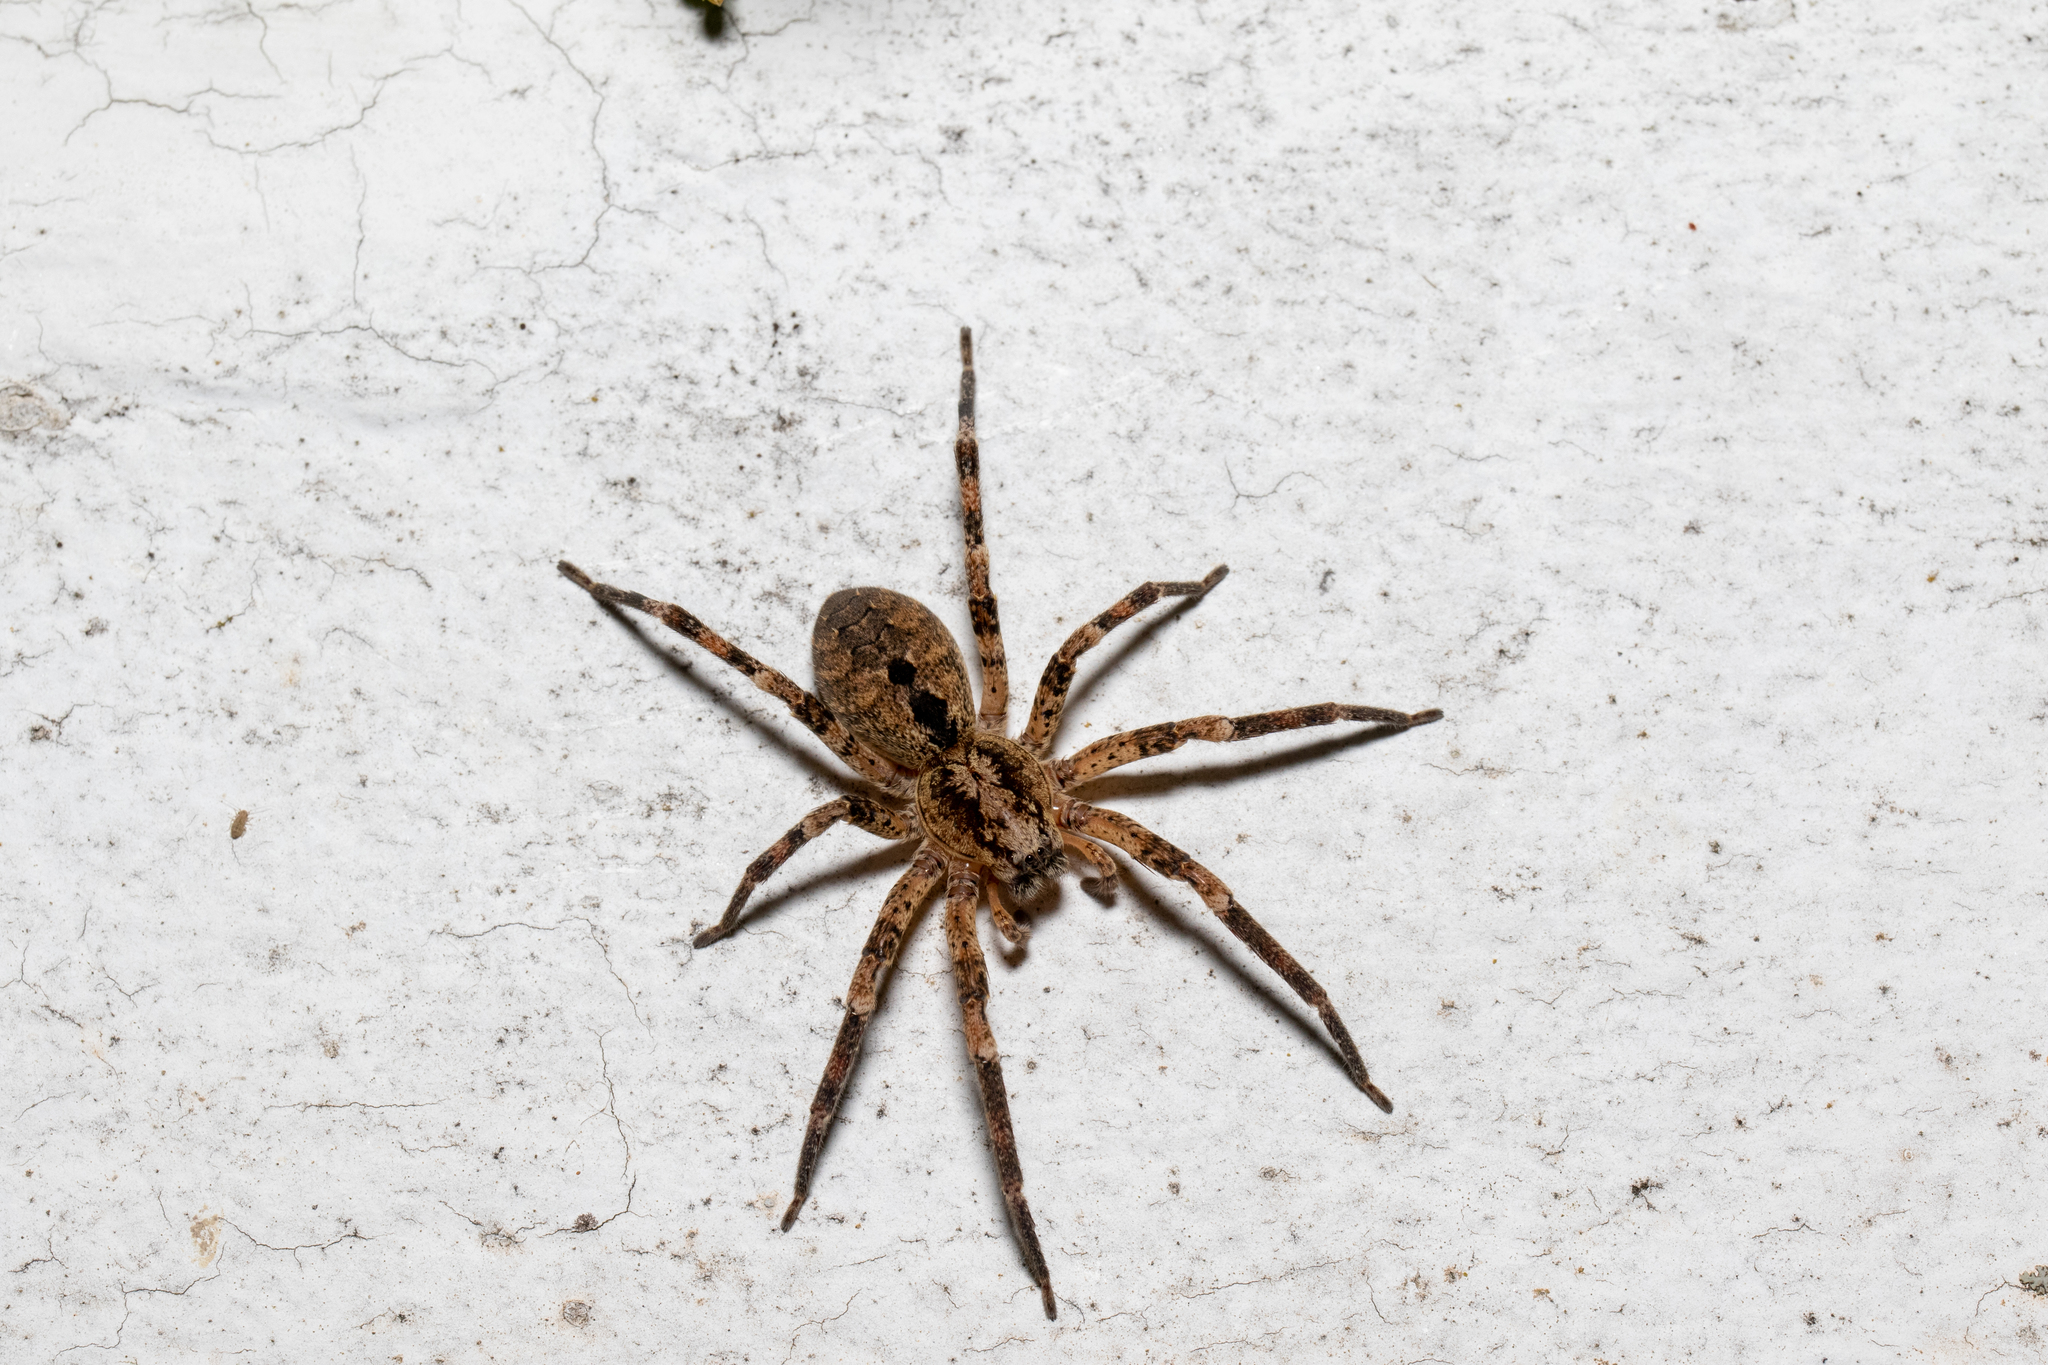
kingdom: Animalia
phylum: Arthropoda
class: Arachnida
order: Araneae
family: Zoropsidae
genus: Zoropsis
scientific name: Zoropsis spinimana
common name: Zoropsid spider
